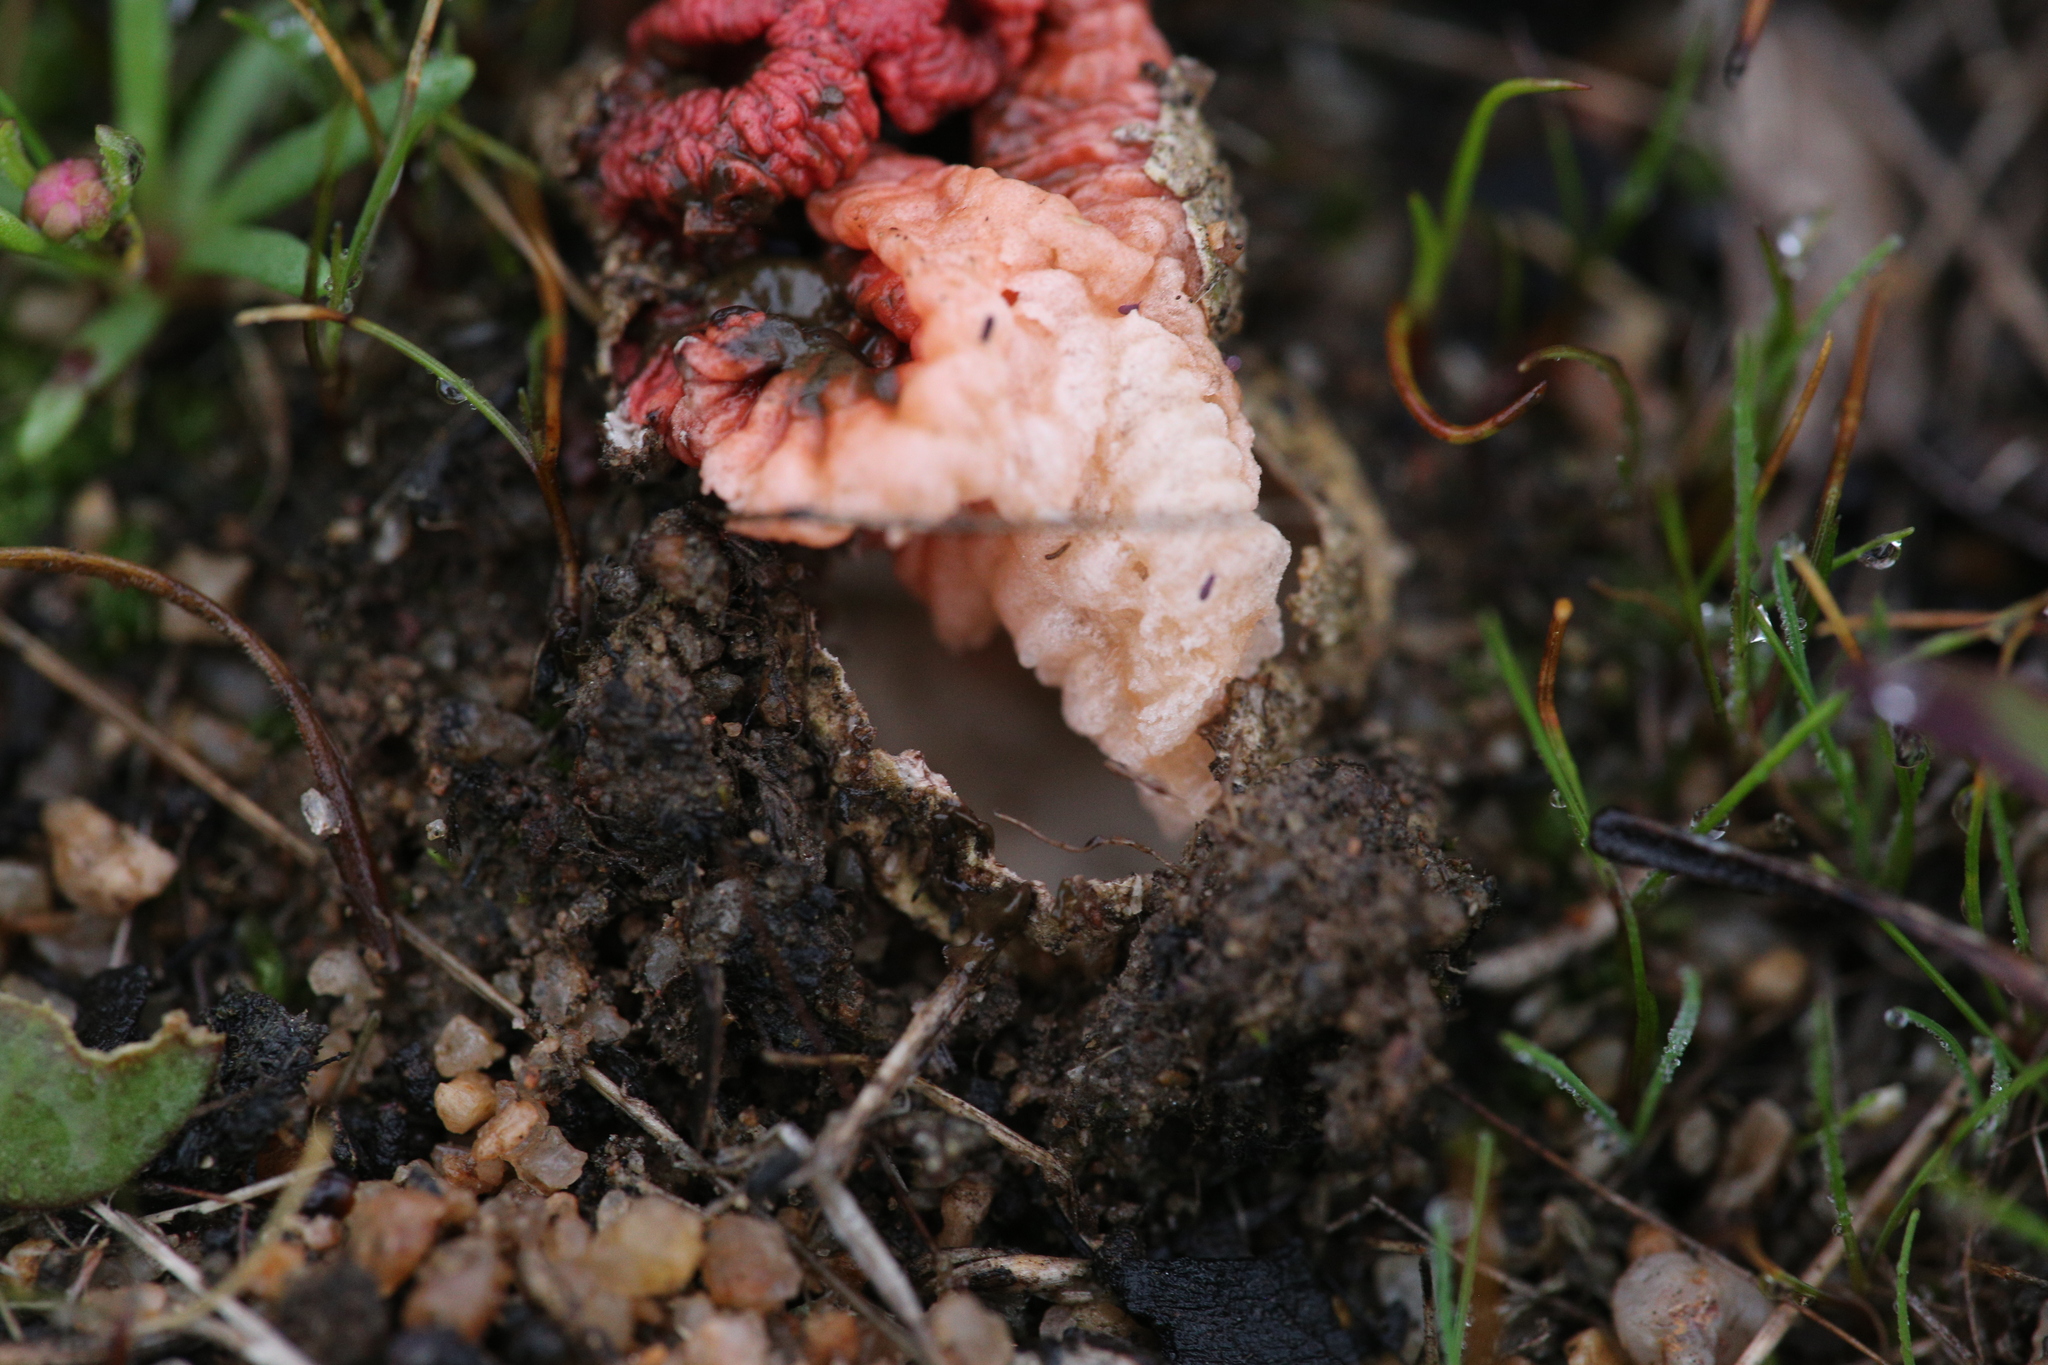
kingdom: Fungi
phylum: Basidiomycota
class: Agaricomycetes
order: Phallales
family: Phallaceae
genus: Colus
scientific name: Colus pusillus
